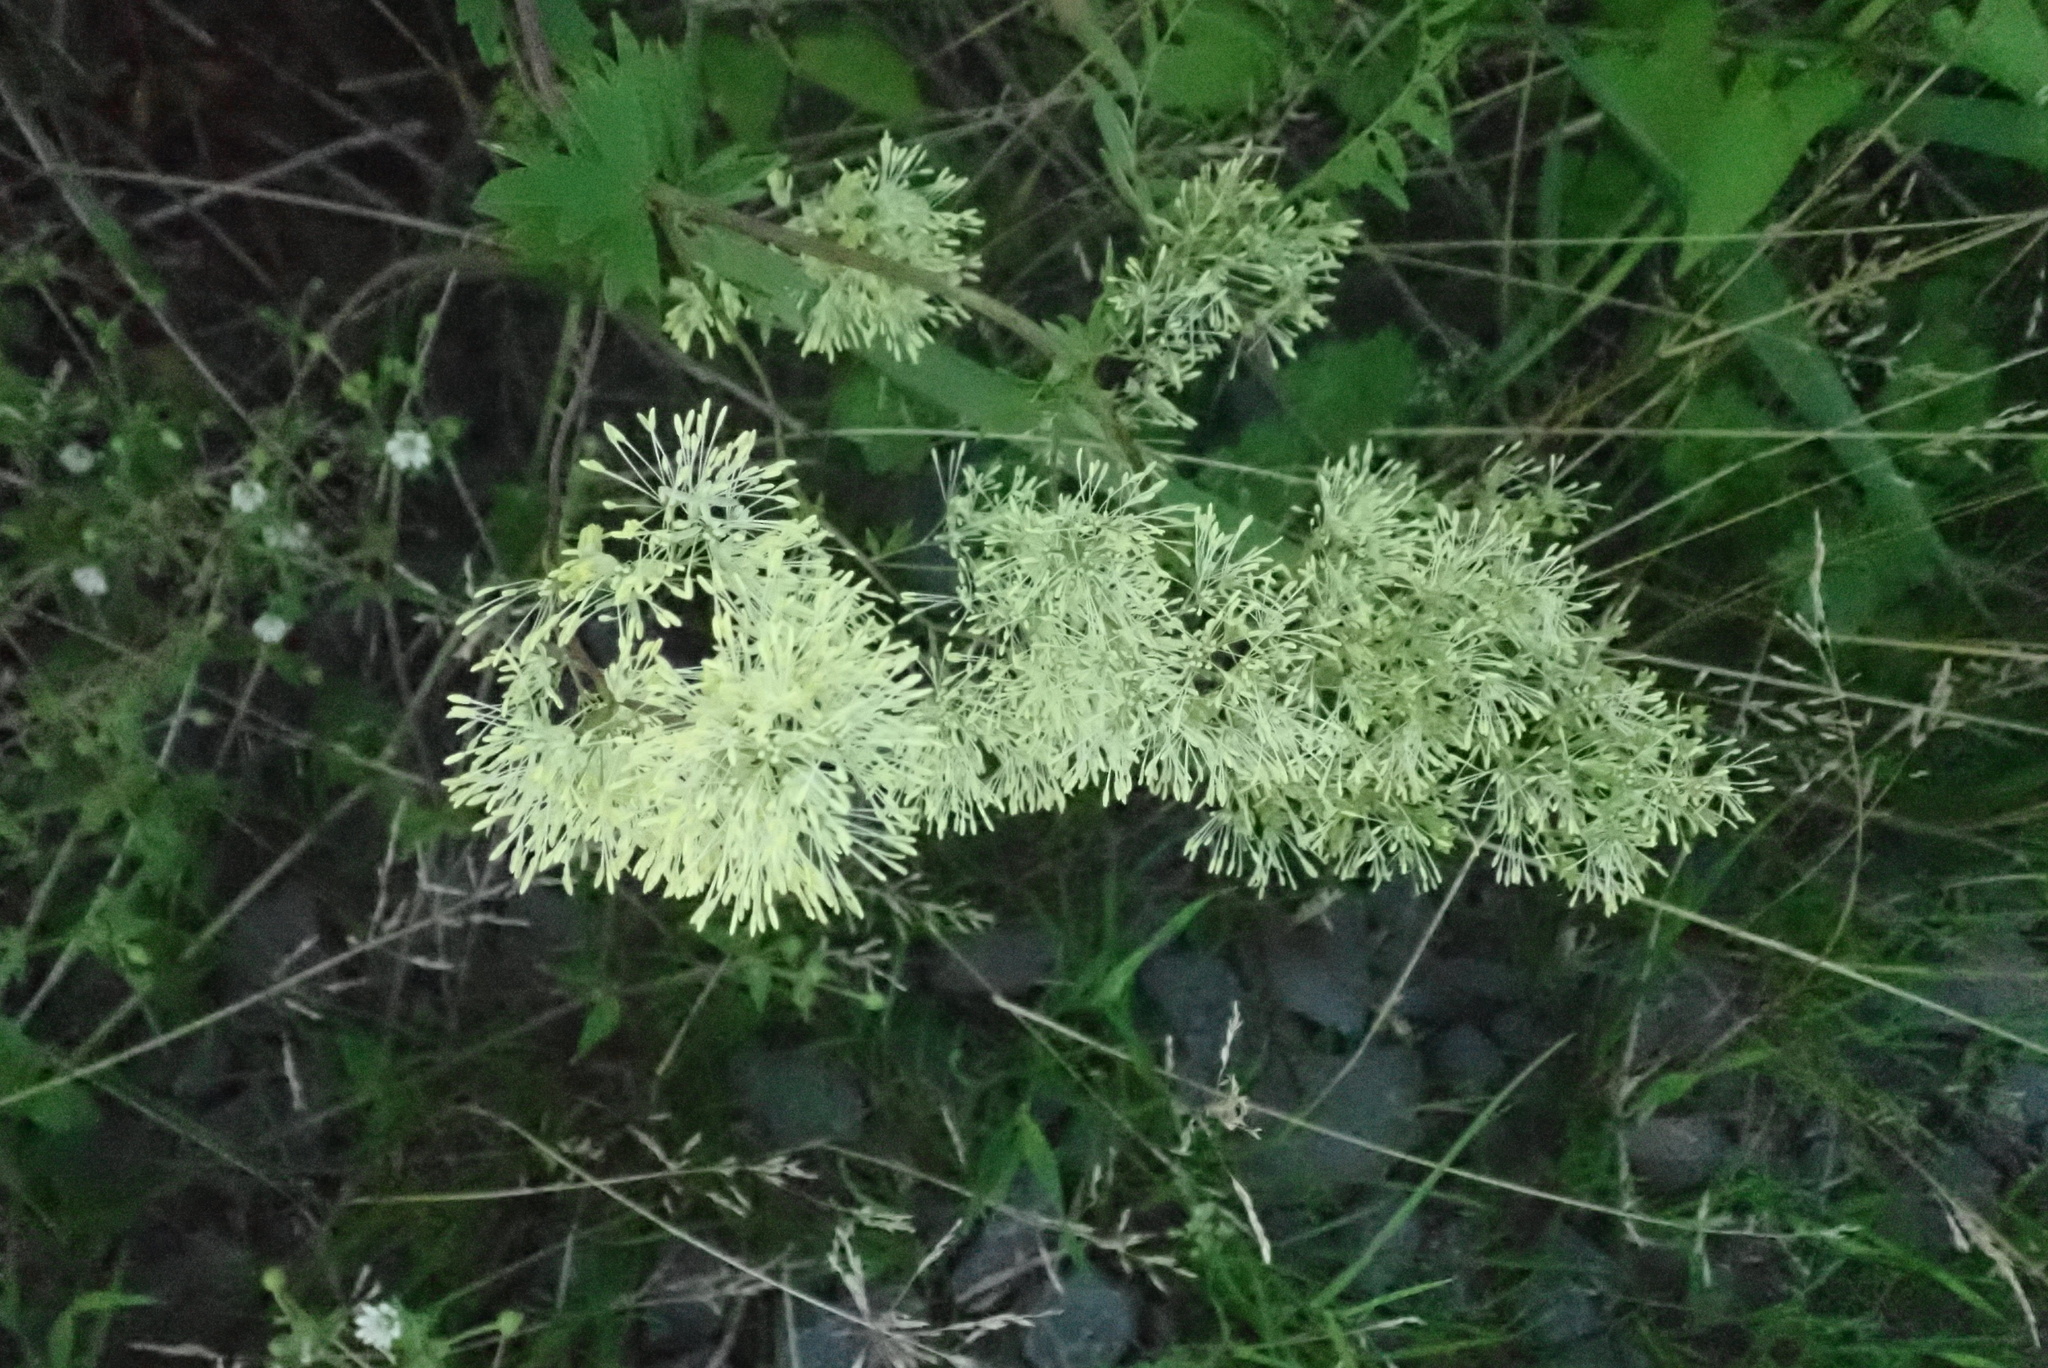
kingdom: Plantae
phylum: Tracheophyta
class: Magnoliopsida
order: Ranunculales
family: Ranunculaceae
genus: Thalictrum
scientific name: Thalictrum flavum
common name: Common meadow-rue
